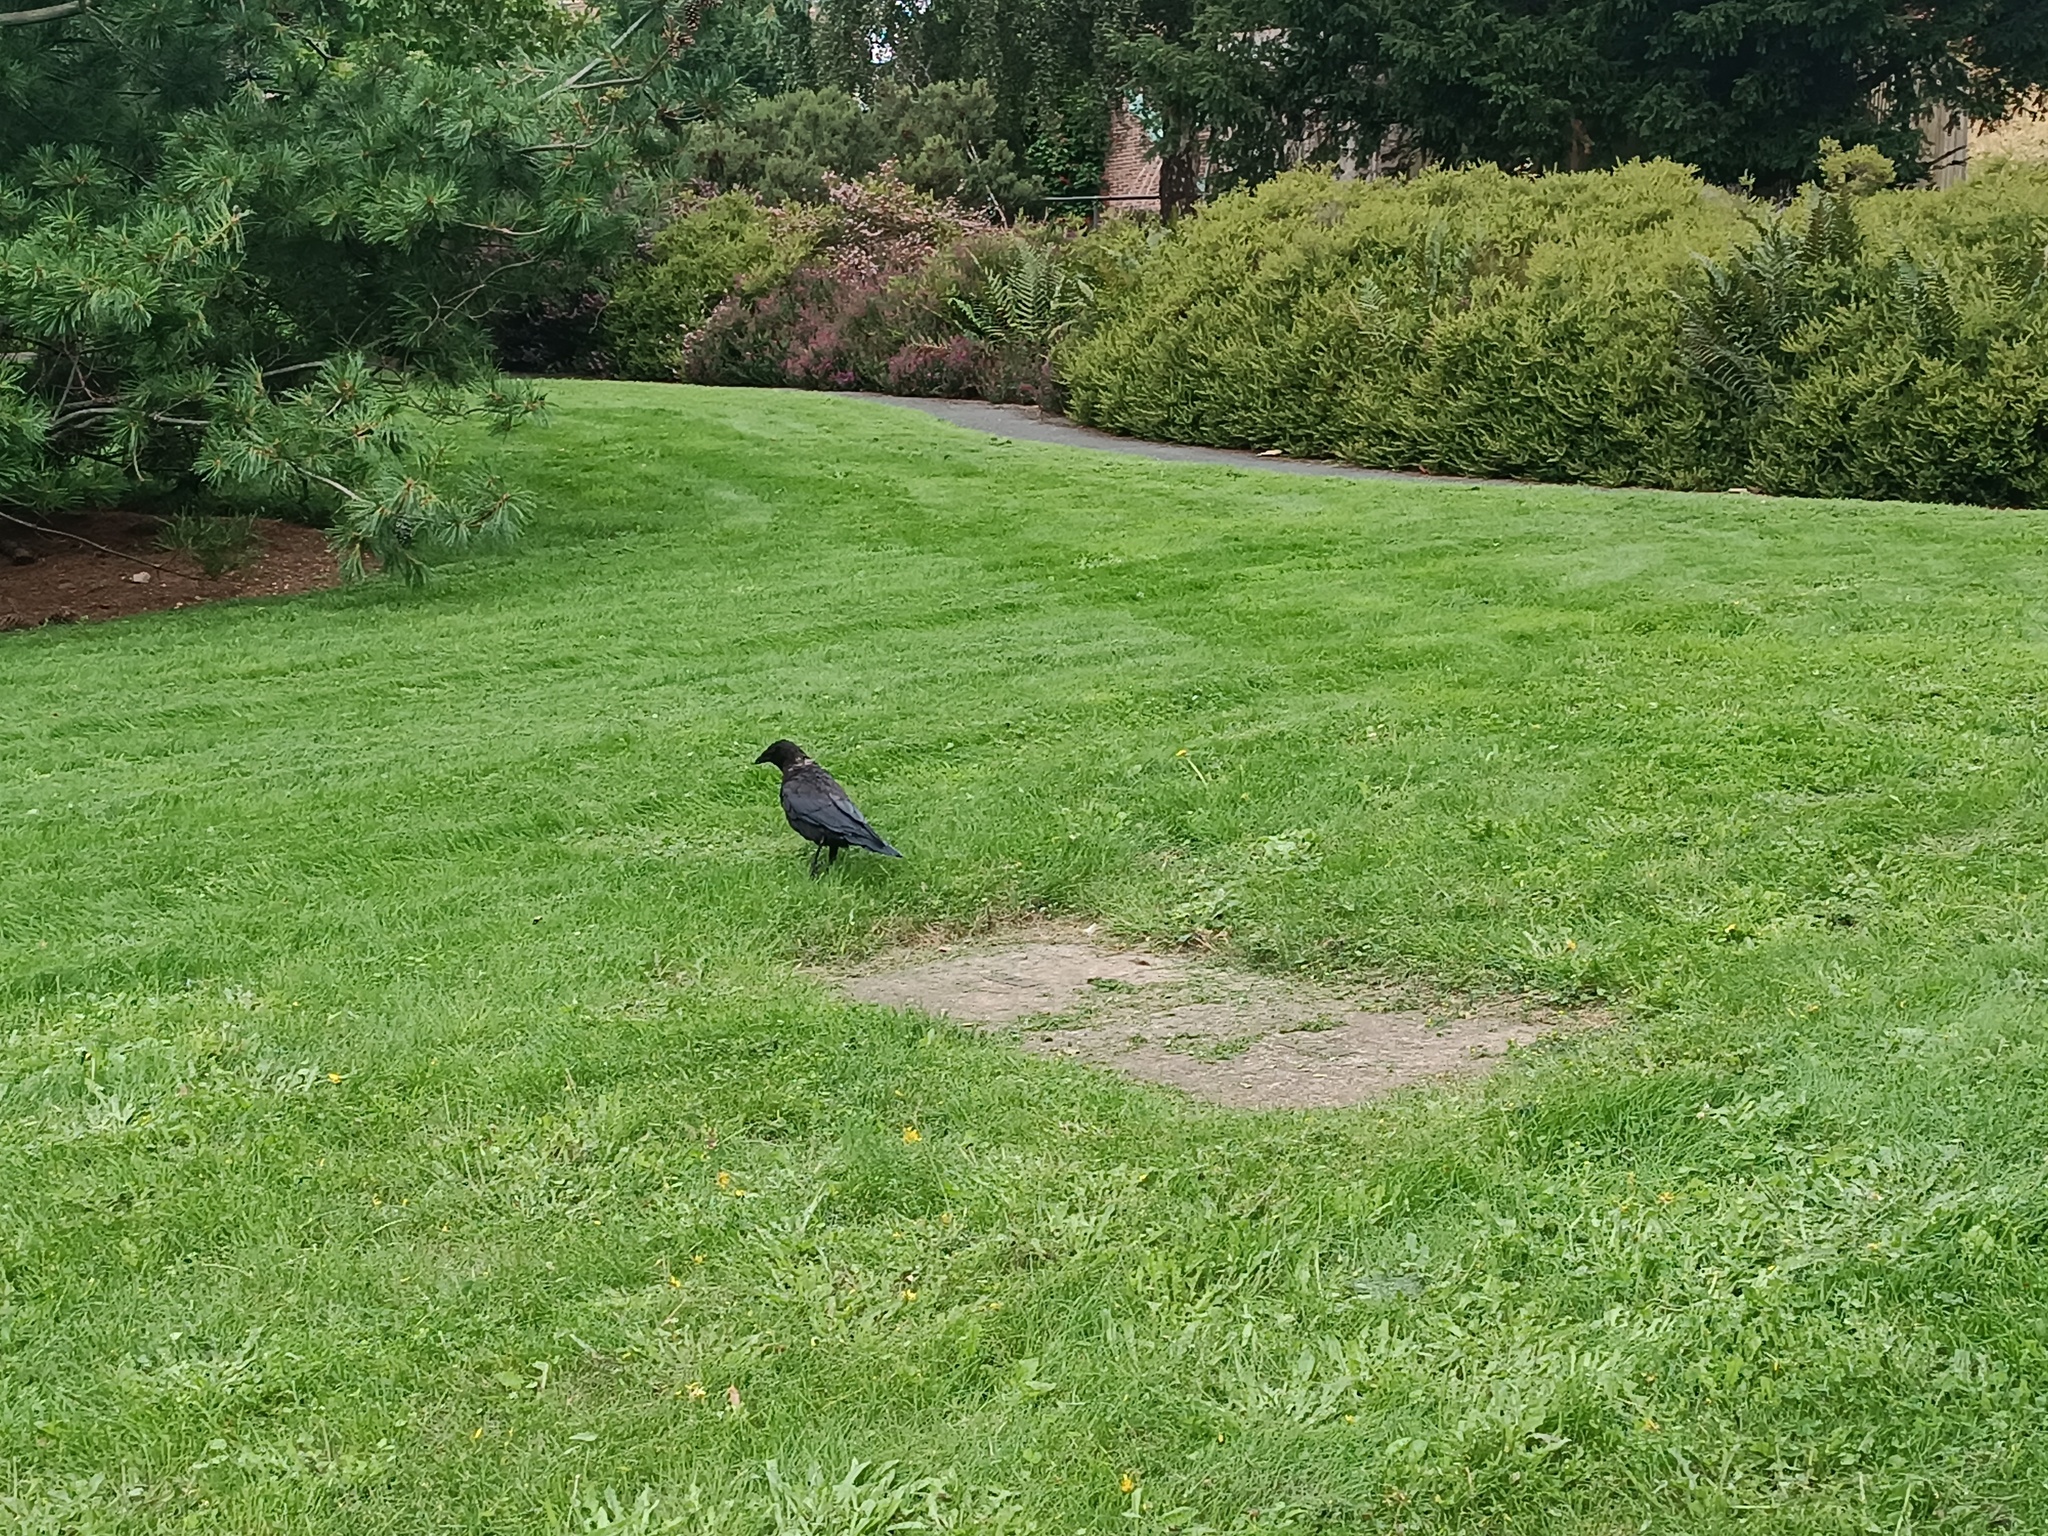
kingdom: Animalia
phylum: Chordata
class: Aves
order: Passeriformes
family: Corvidae
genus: Corvus
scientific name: Corvus corone
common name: Carrion crow
